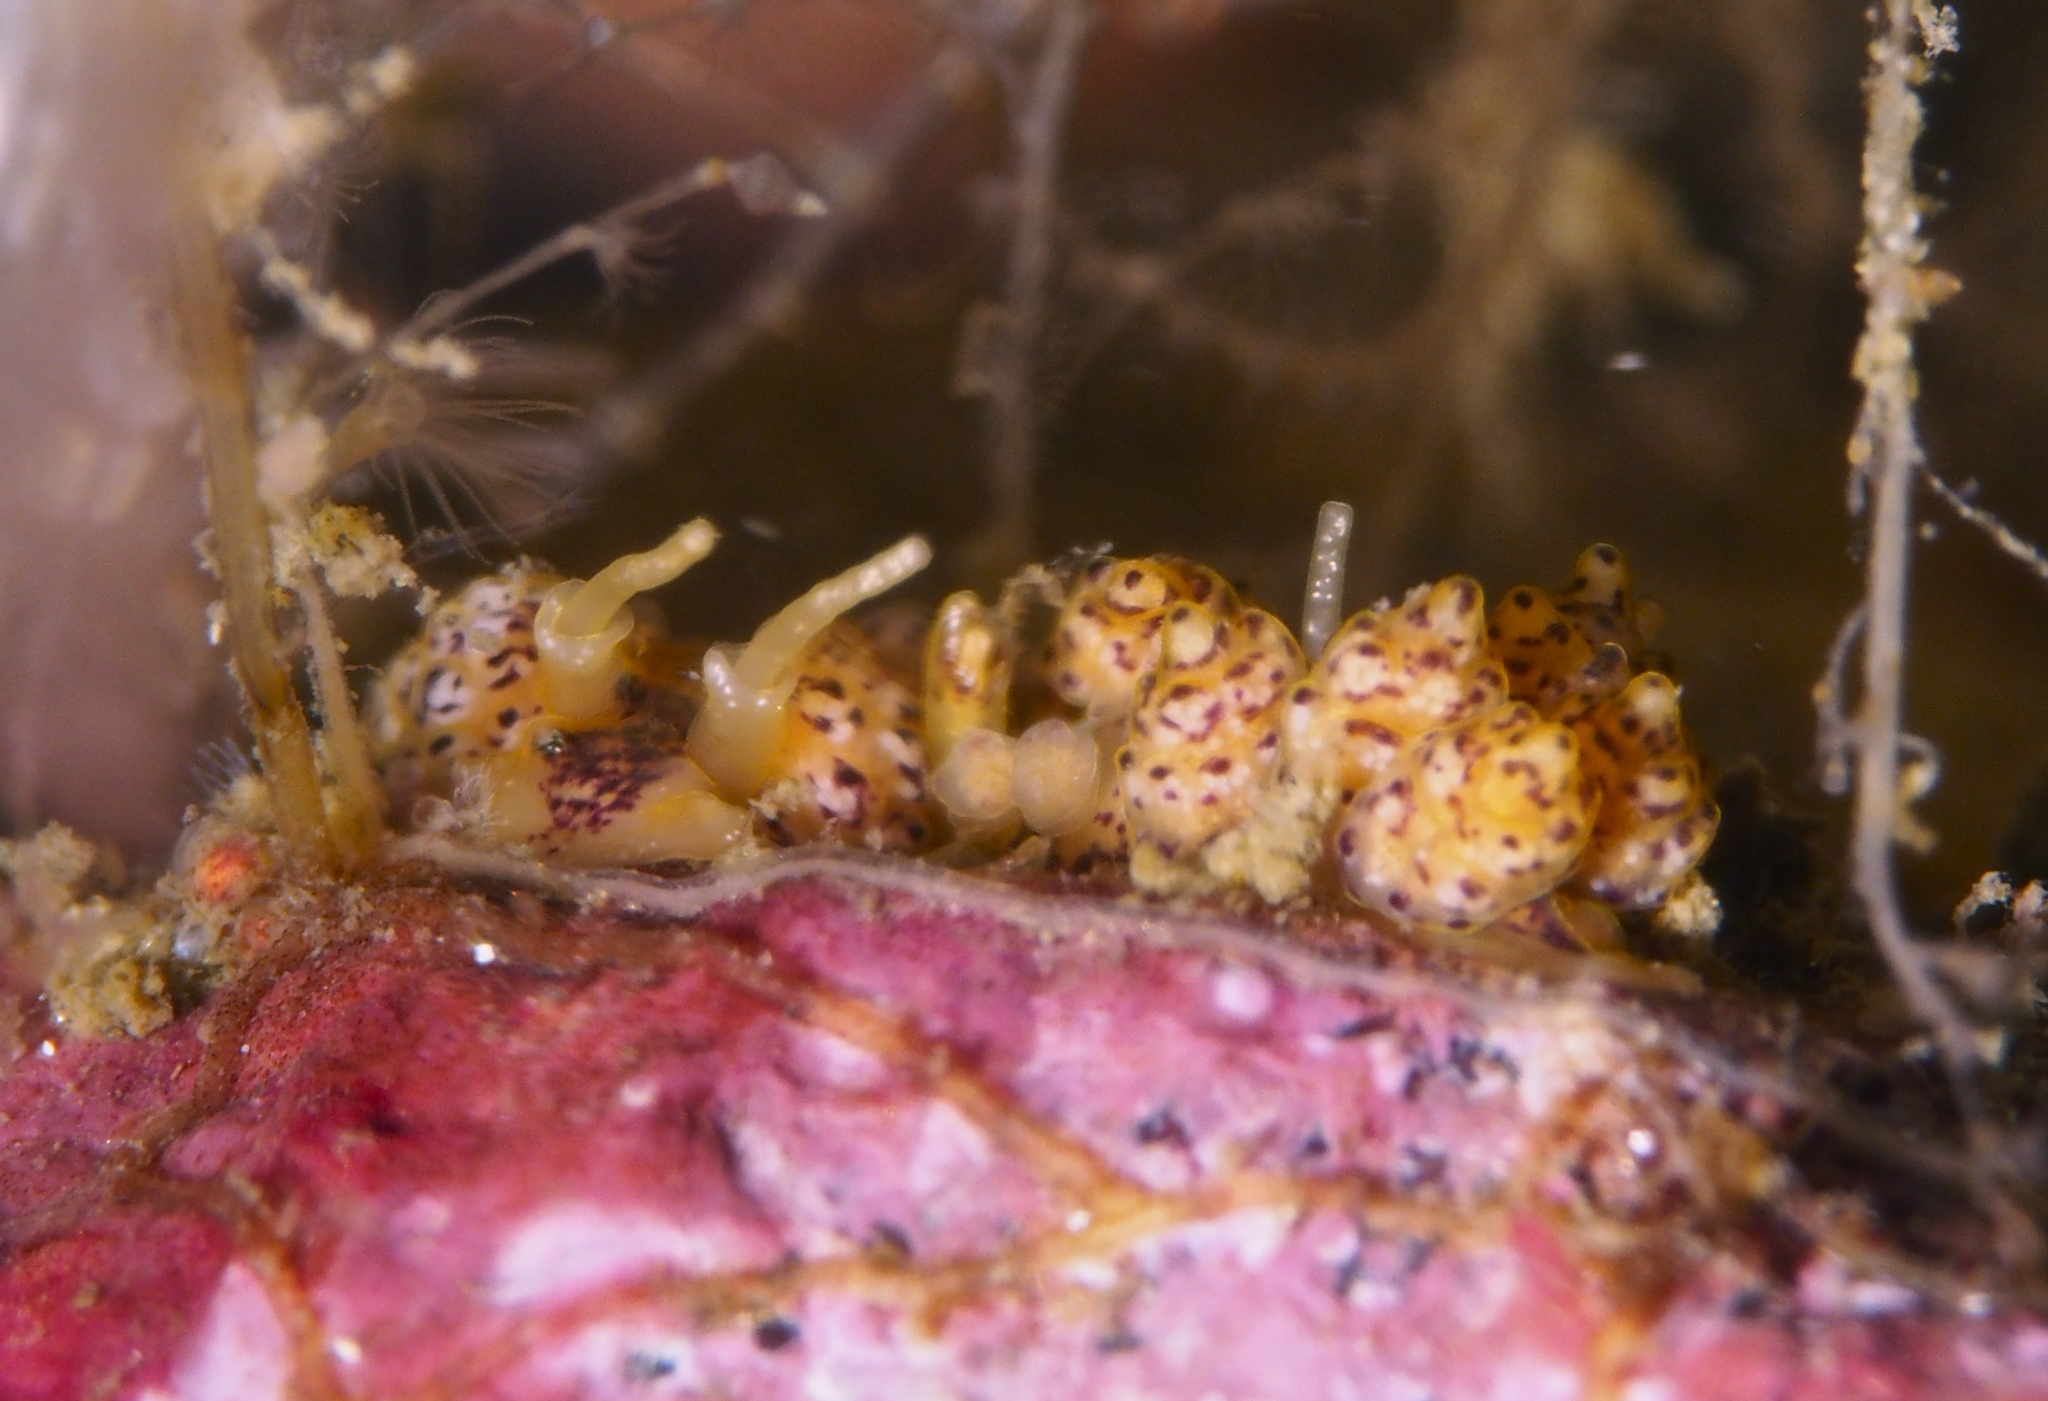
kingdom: Animalia
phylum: Mollusca
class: Gastropoda
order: Nudibranchia
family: Dotidae
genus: Doto
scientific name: Doto dunnei
